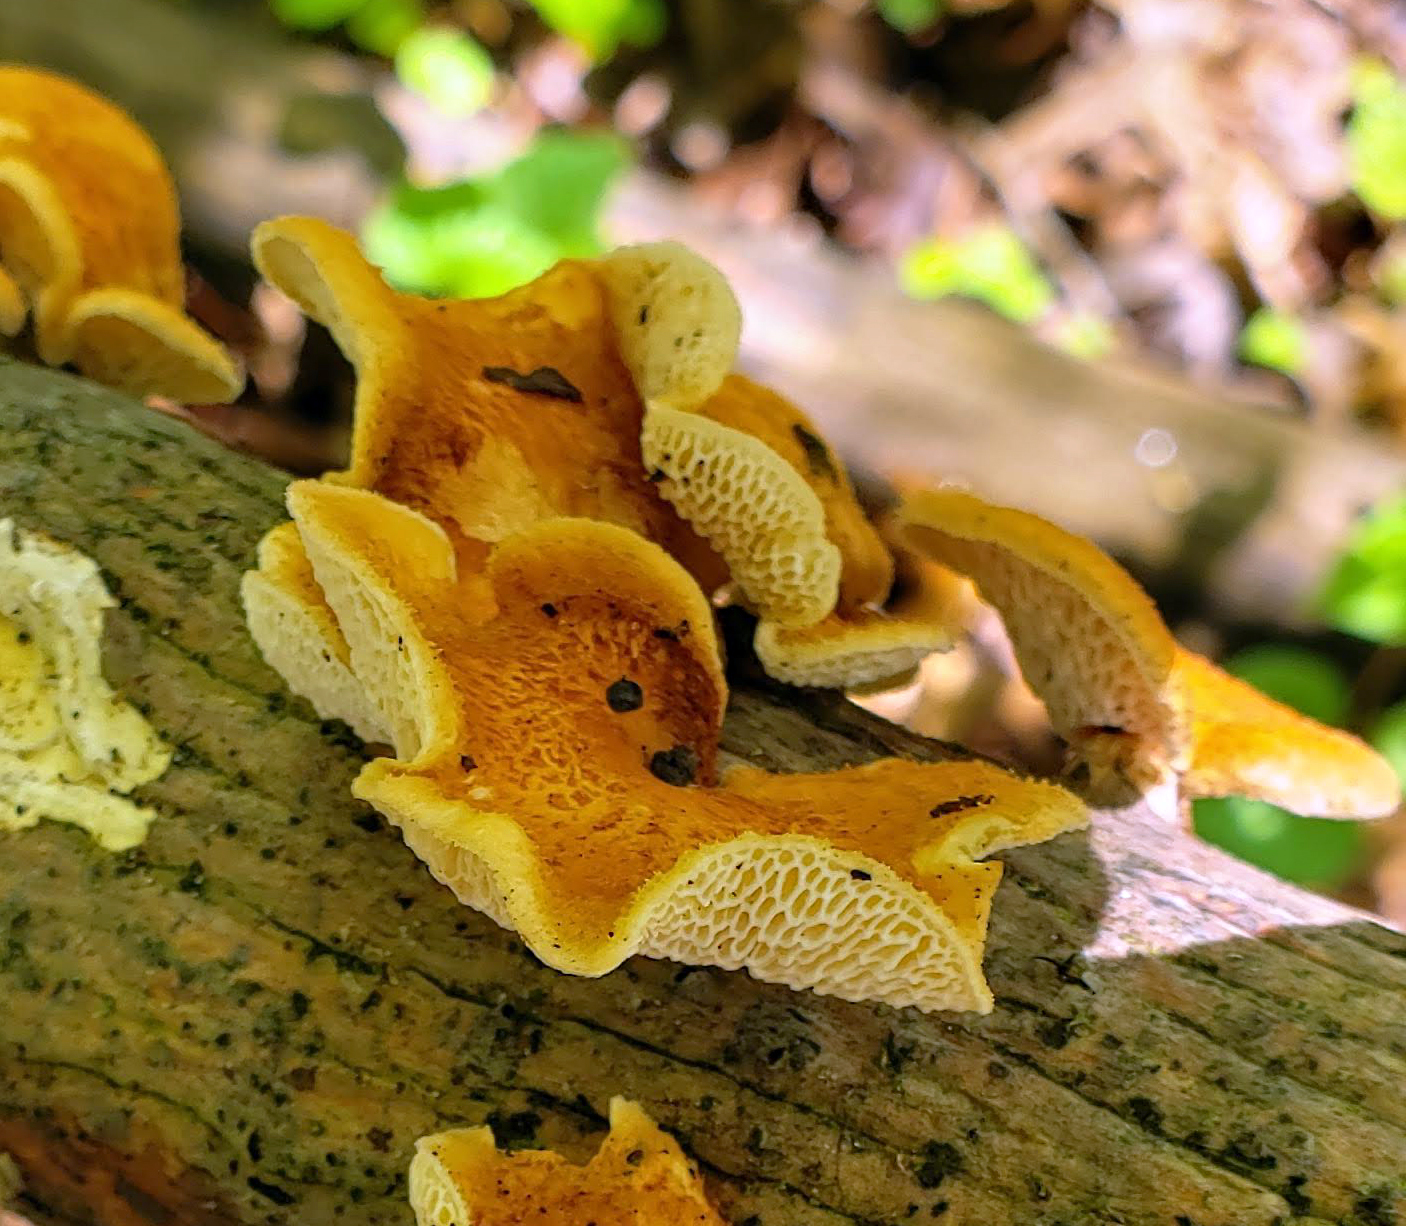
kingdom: Fungi
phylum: Basidiomycota
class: Agaricomycetes
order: Polyporales
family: Polyporaceae
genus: Neofavolus
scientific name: Neofavolus alveolaris
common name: Hexagonal-pored polypore
